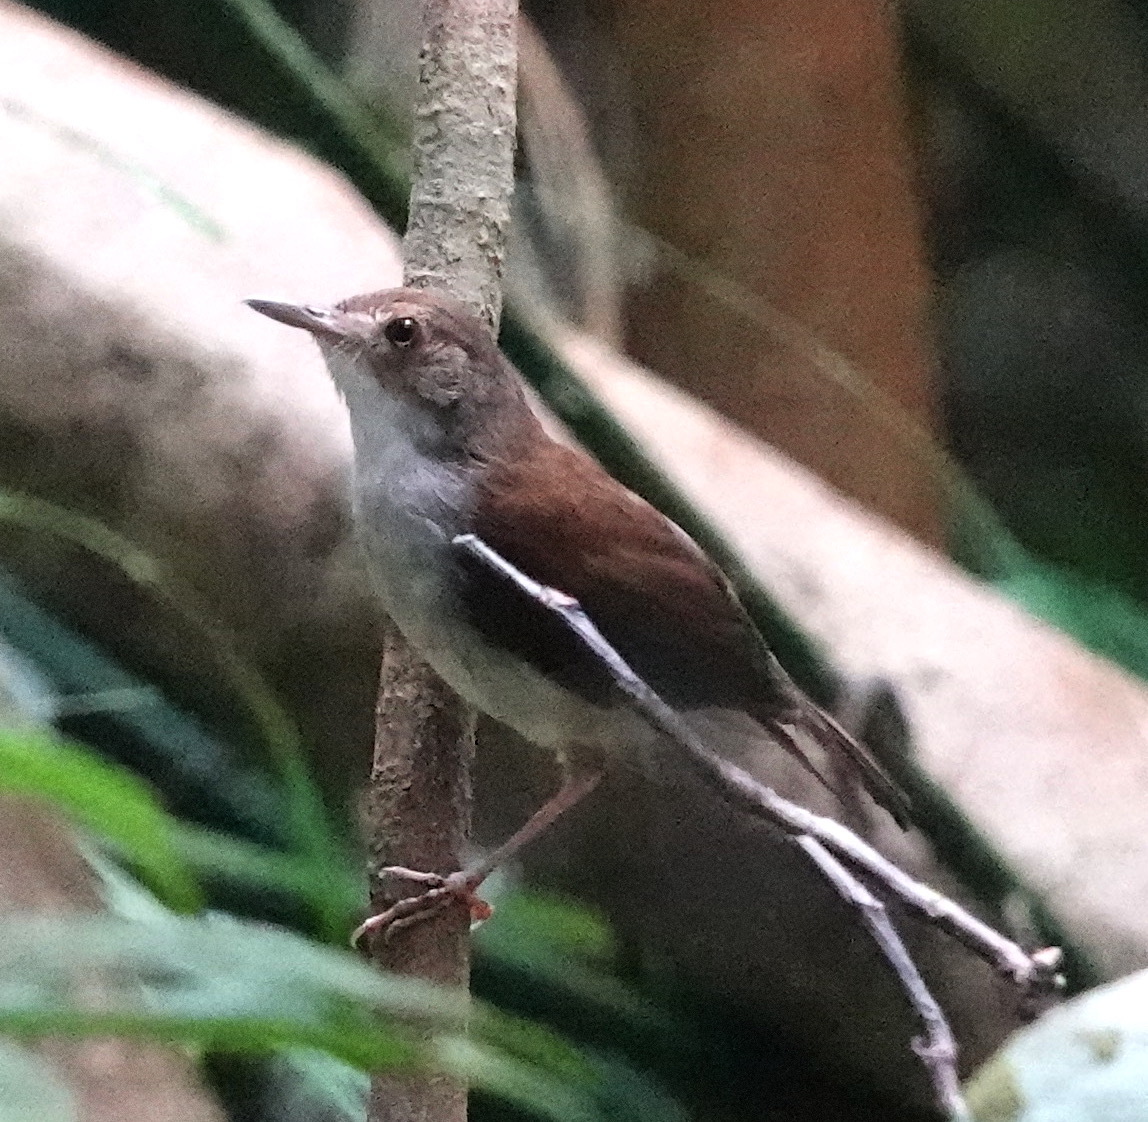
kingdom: Animalia
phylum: Chordata
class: Aves
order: Passeriformes
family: Pellorneidae
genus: Trichastoma
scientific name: Trichastoma rostratum
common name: White-chested babbler
